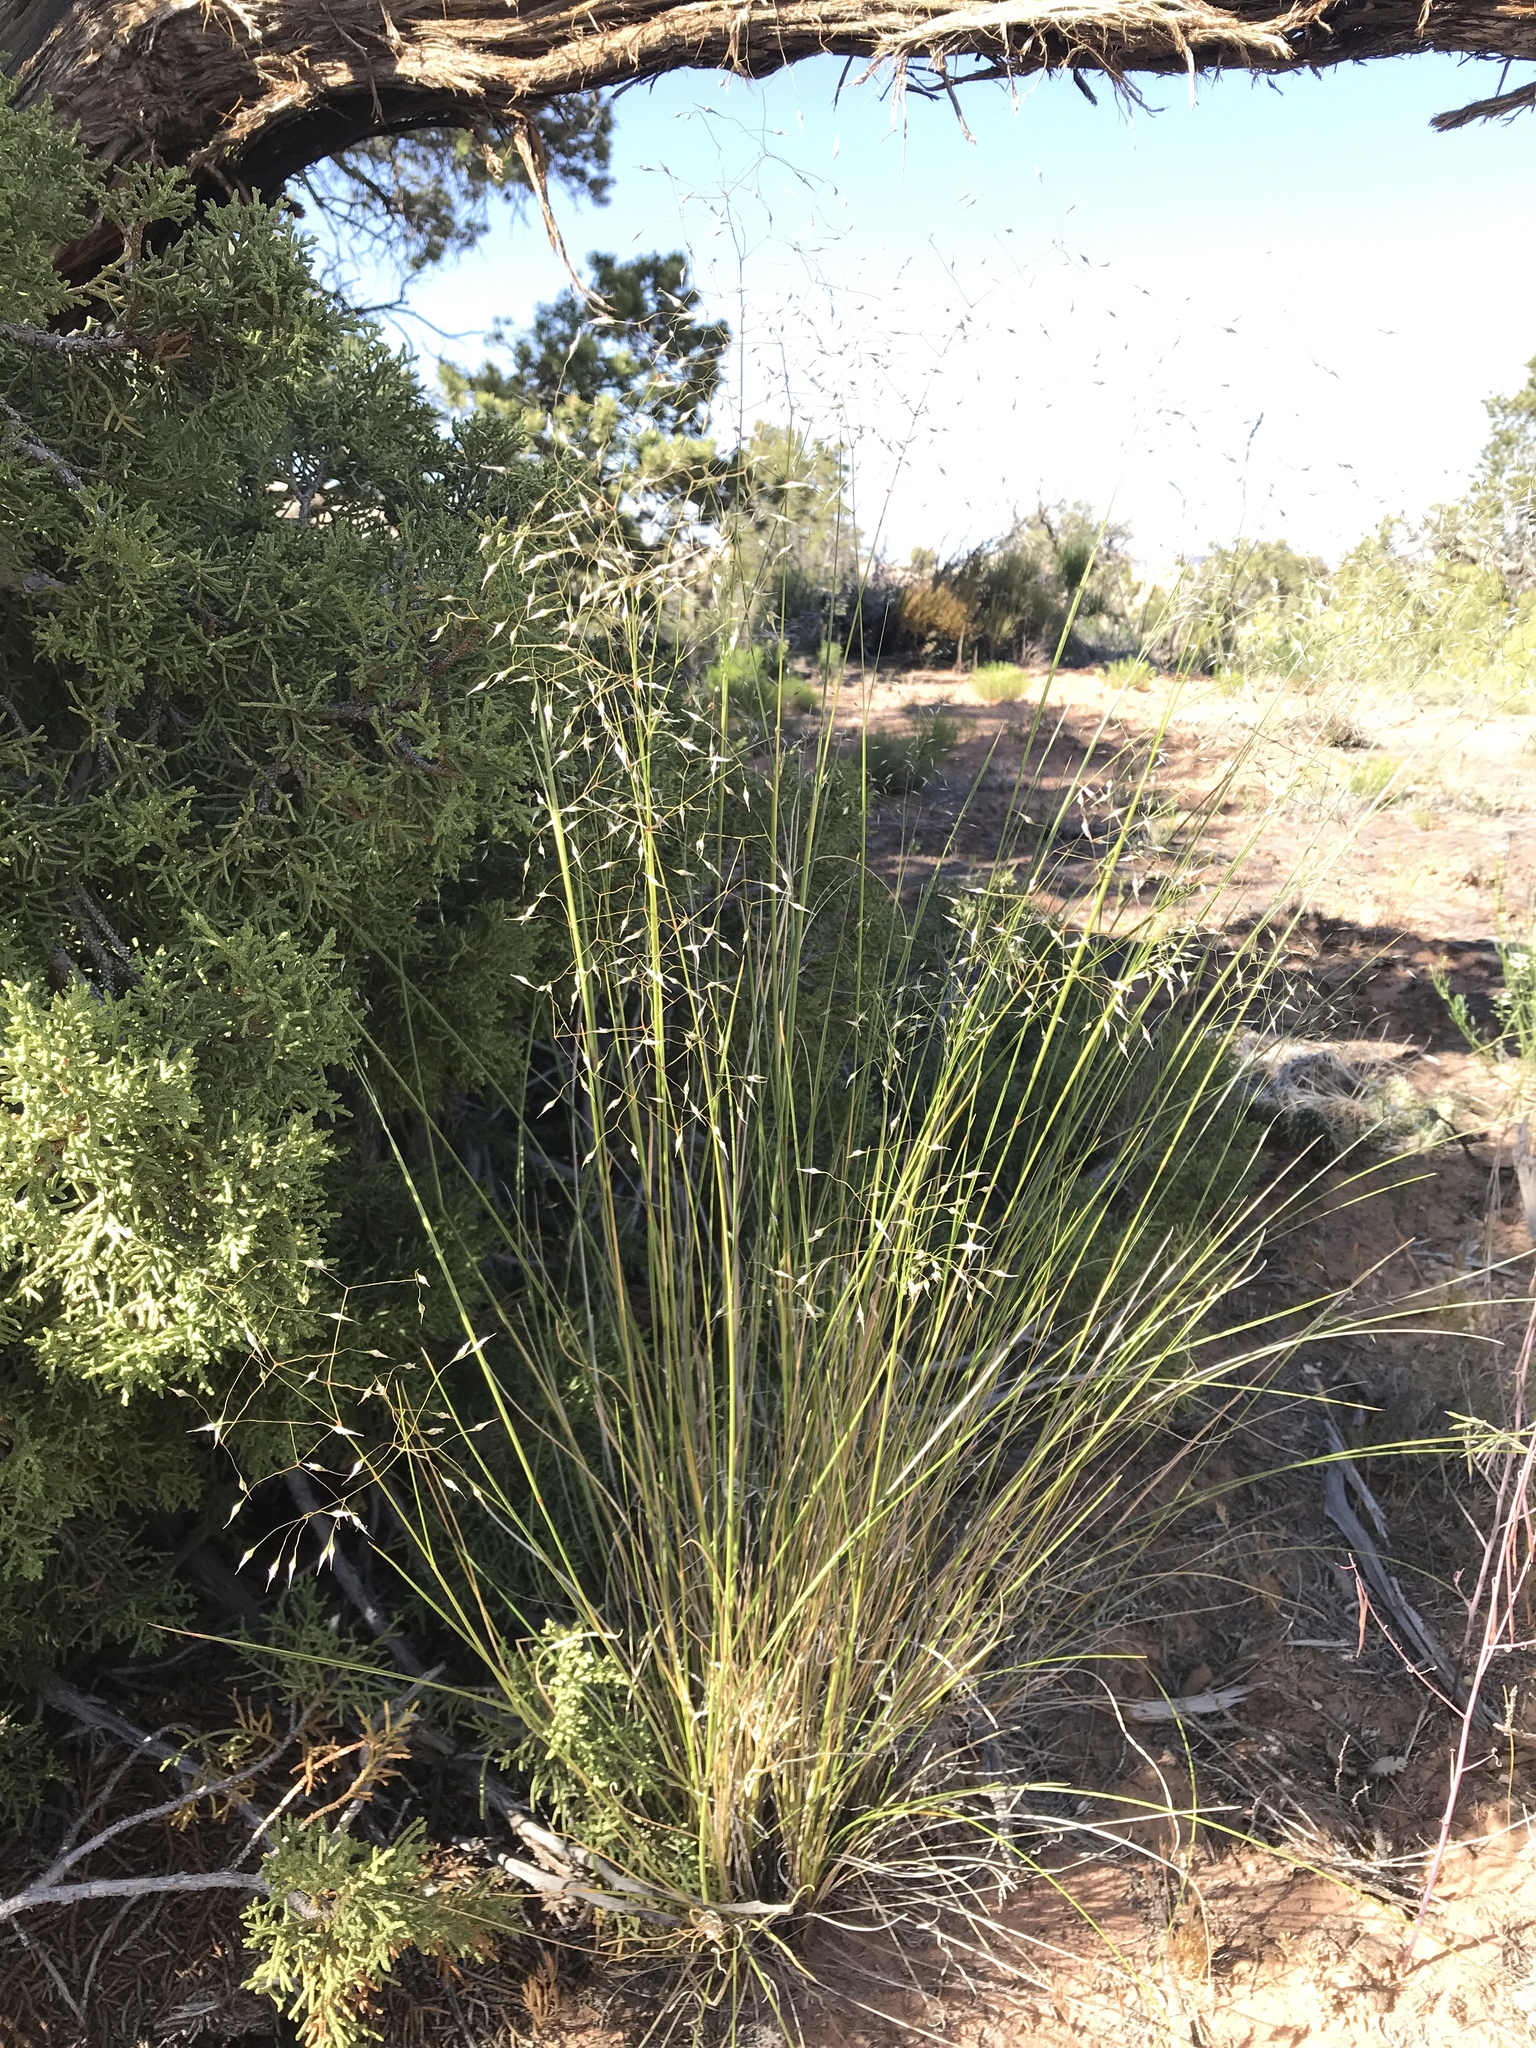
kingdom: Plantae
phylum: Tracheophyta
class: Liliopsida
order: Poales
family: Poaceae
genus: Eriocoma
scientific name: Eriocoma hymenoides
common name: Indian mountain ricegrass
